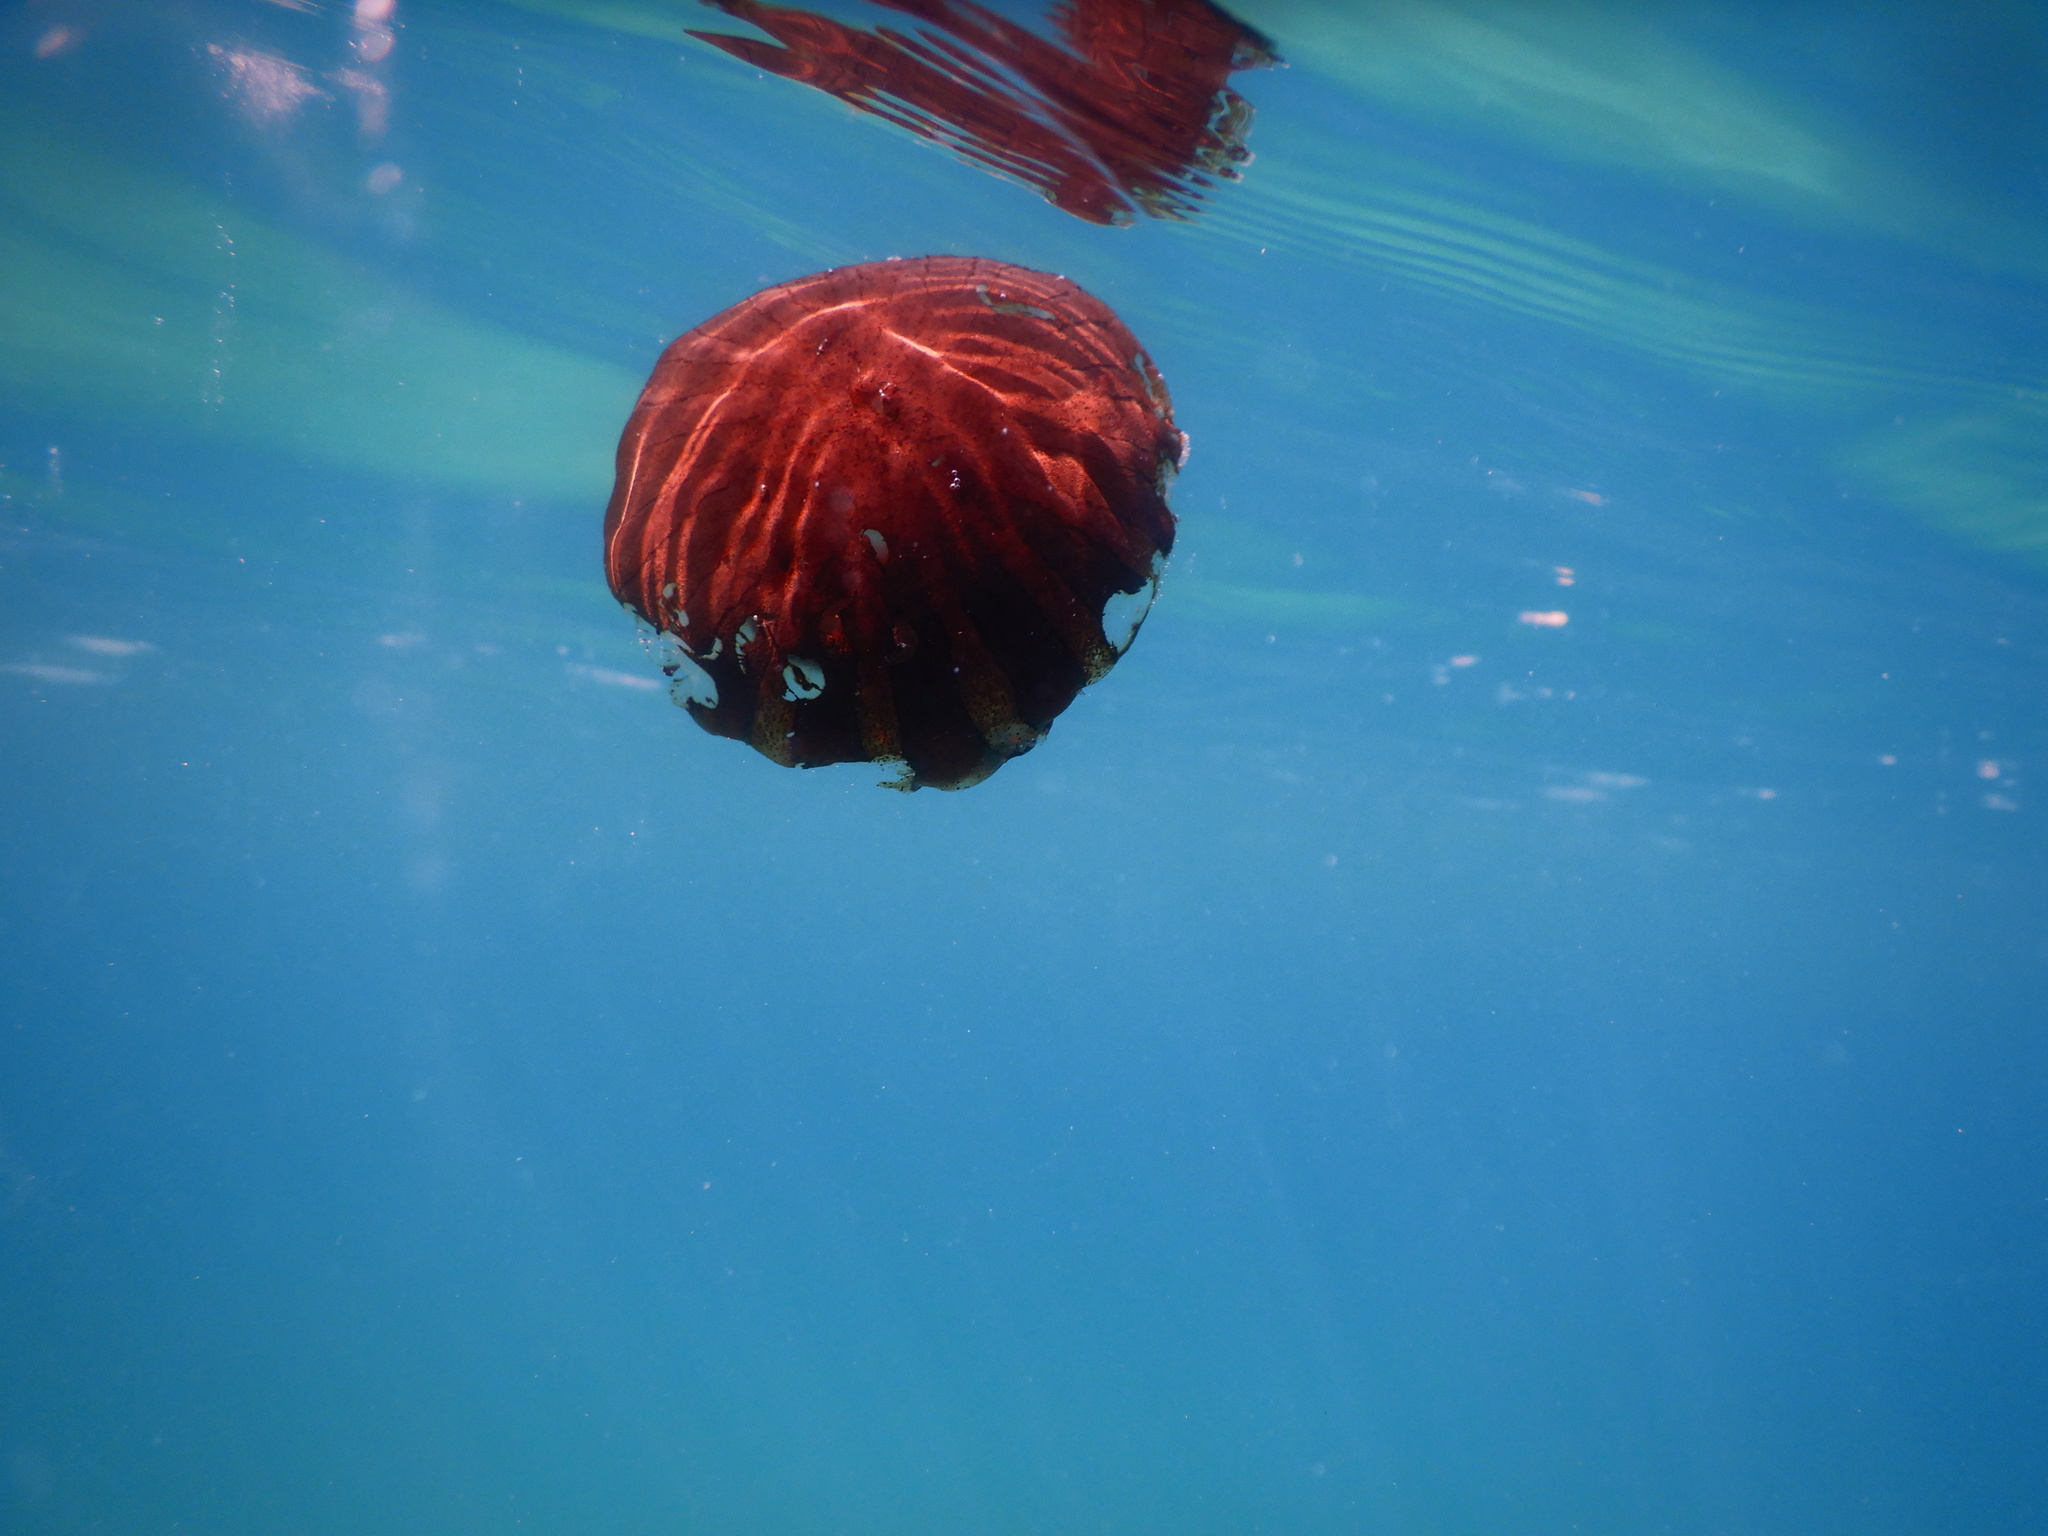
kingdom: Animalia
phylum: Cnidaria
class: Scyphozoa
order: Semaeostomeae
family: Pelagiidae
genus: Chrysaora
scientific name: Chrysaora hysoscella
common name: Compass jellyfish
